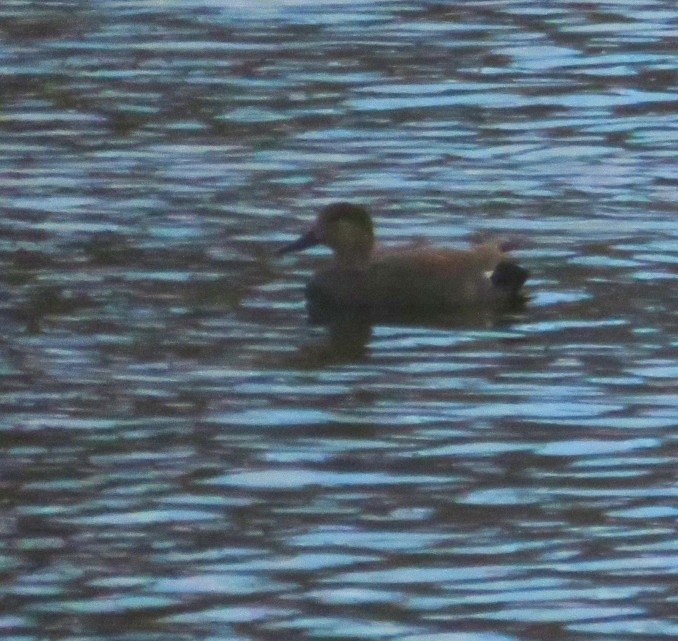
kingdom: Animalia
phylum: Chordata
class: Aves
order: Anseriformes
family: Anatidae
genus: Mareca
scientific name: Mareca strepera
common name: Gadwall
